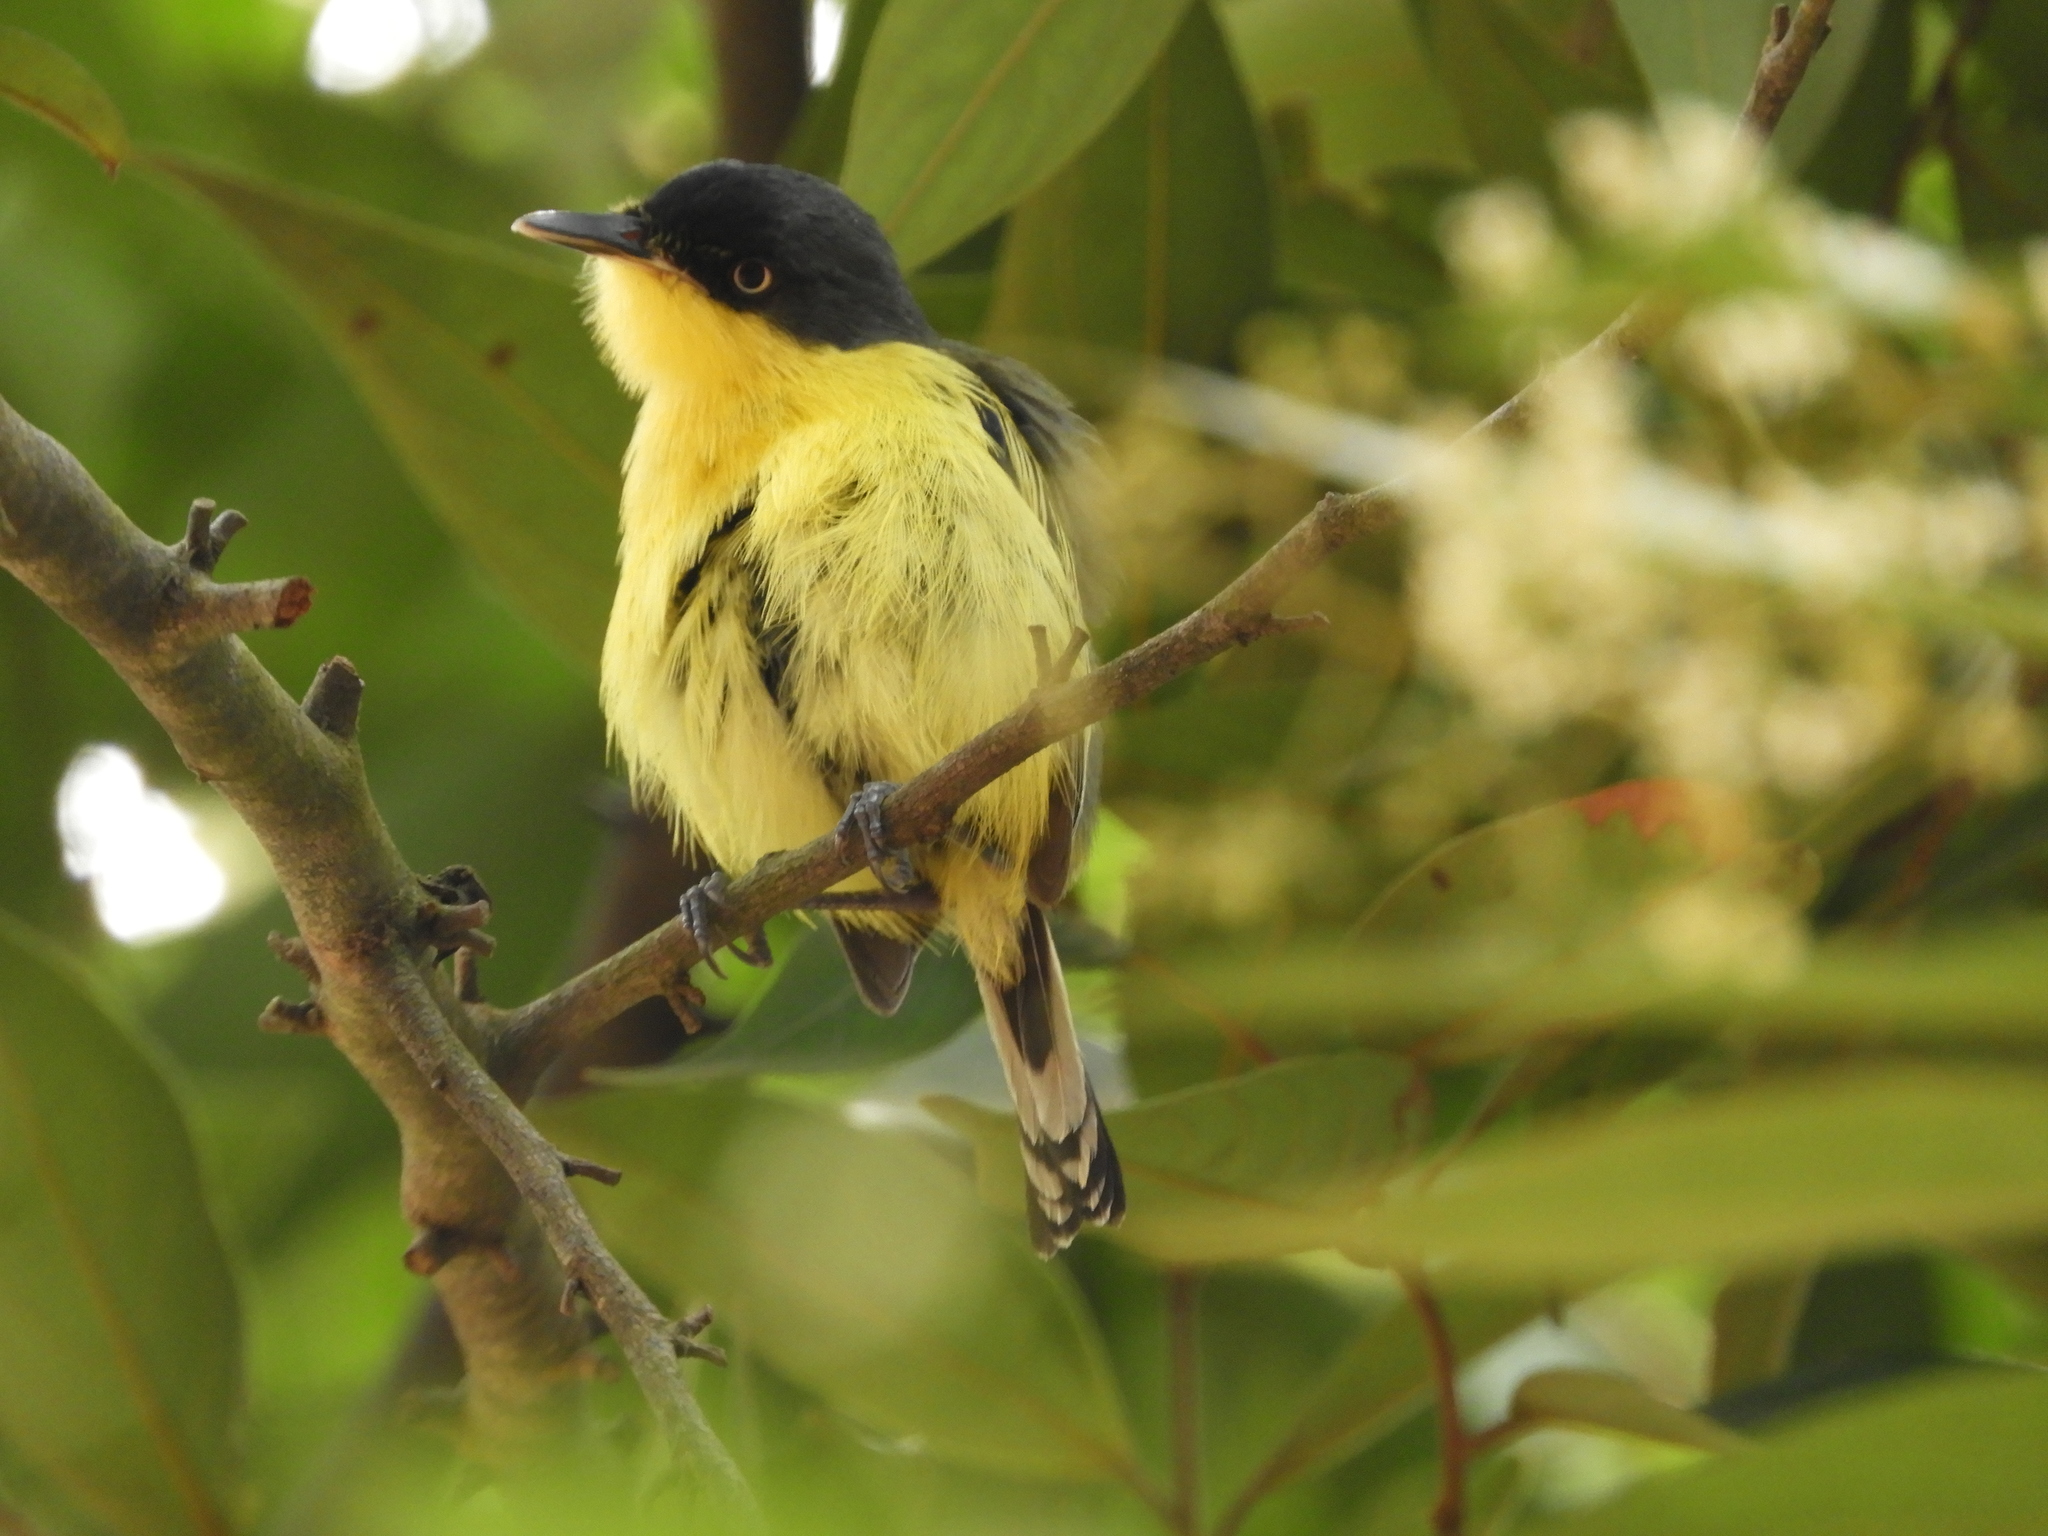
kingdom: Animalia
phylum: Chordata
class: Aves
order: Passeriformes
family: Tyrannidae
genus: Todirostrum
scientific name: Todirostrum cinereum
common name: Common tody-flycatcher
